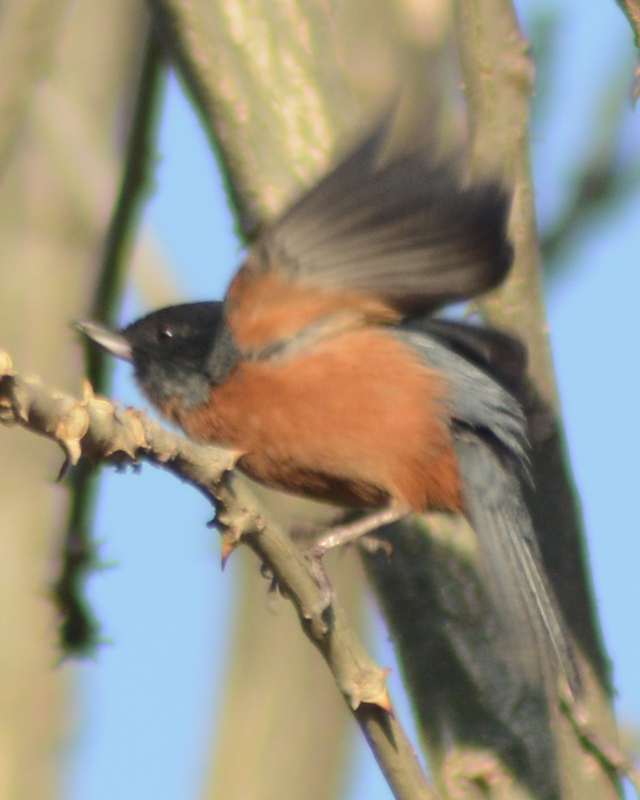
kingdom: Animalia
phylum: Chordata
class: Aves
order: Passeriformes
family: Thraupidae
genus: Diglossa
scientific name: Diglossa baritula
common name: Cinnamon-bellied flowerpiercer
